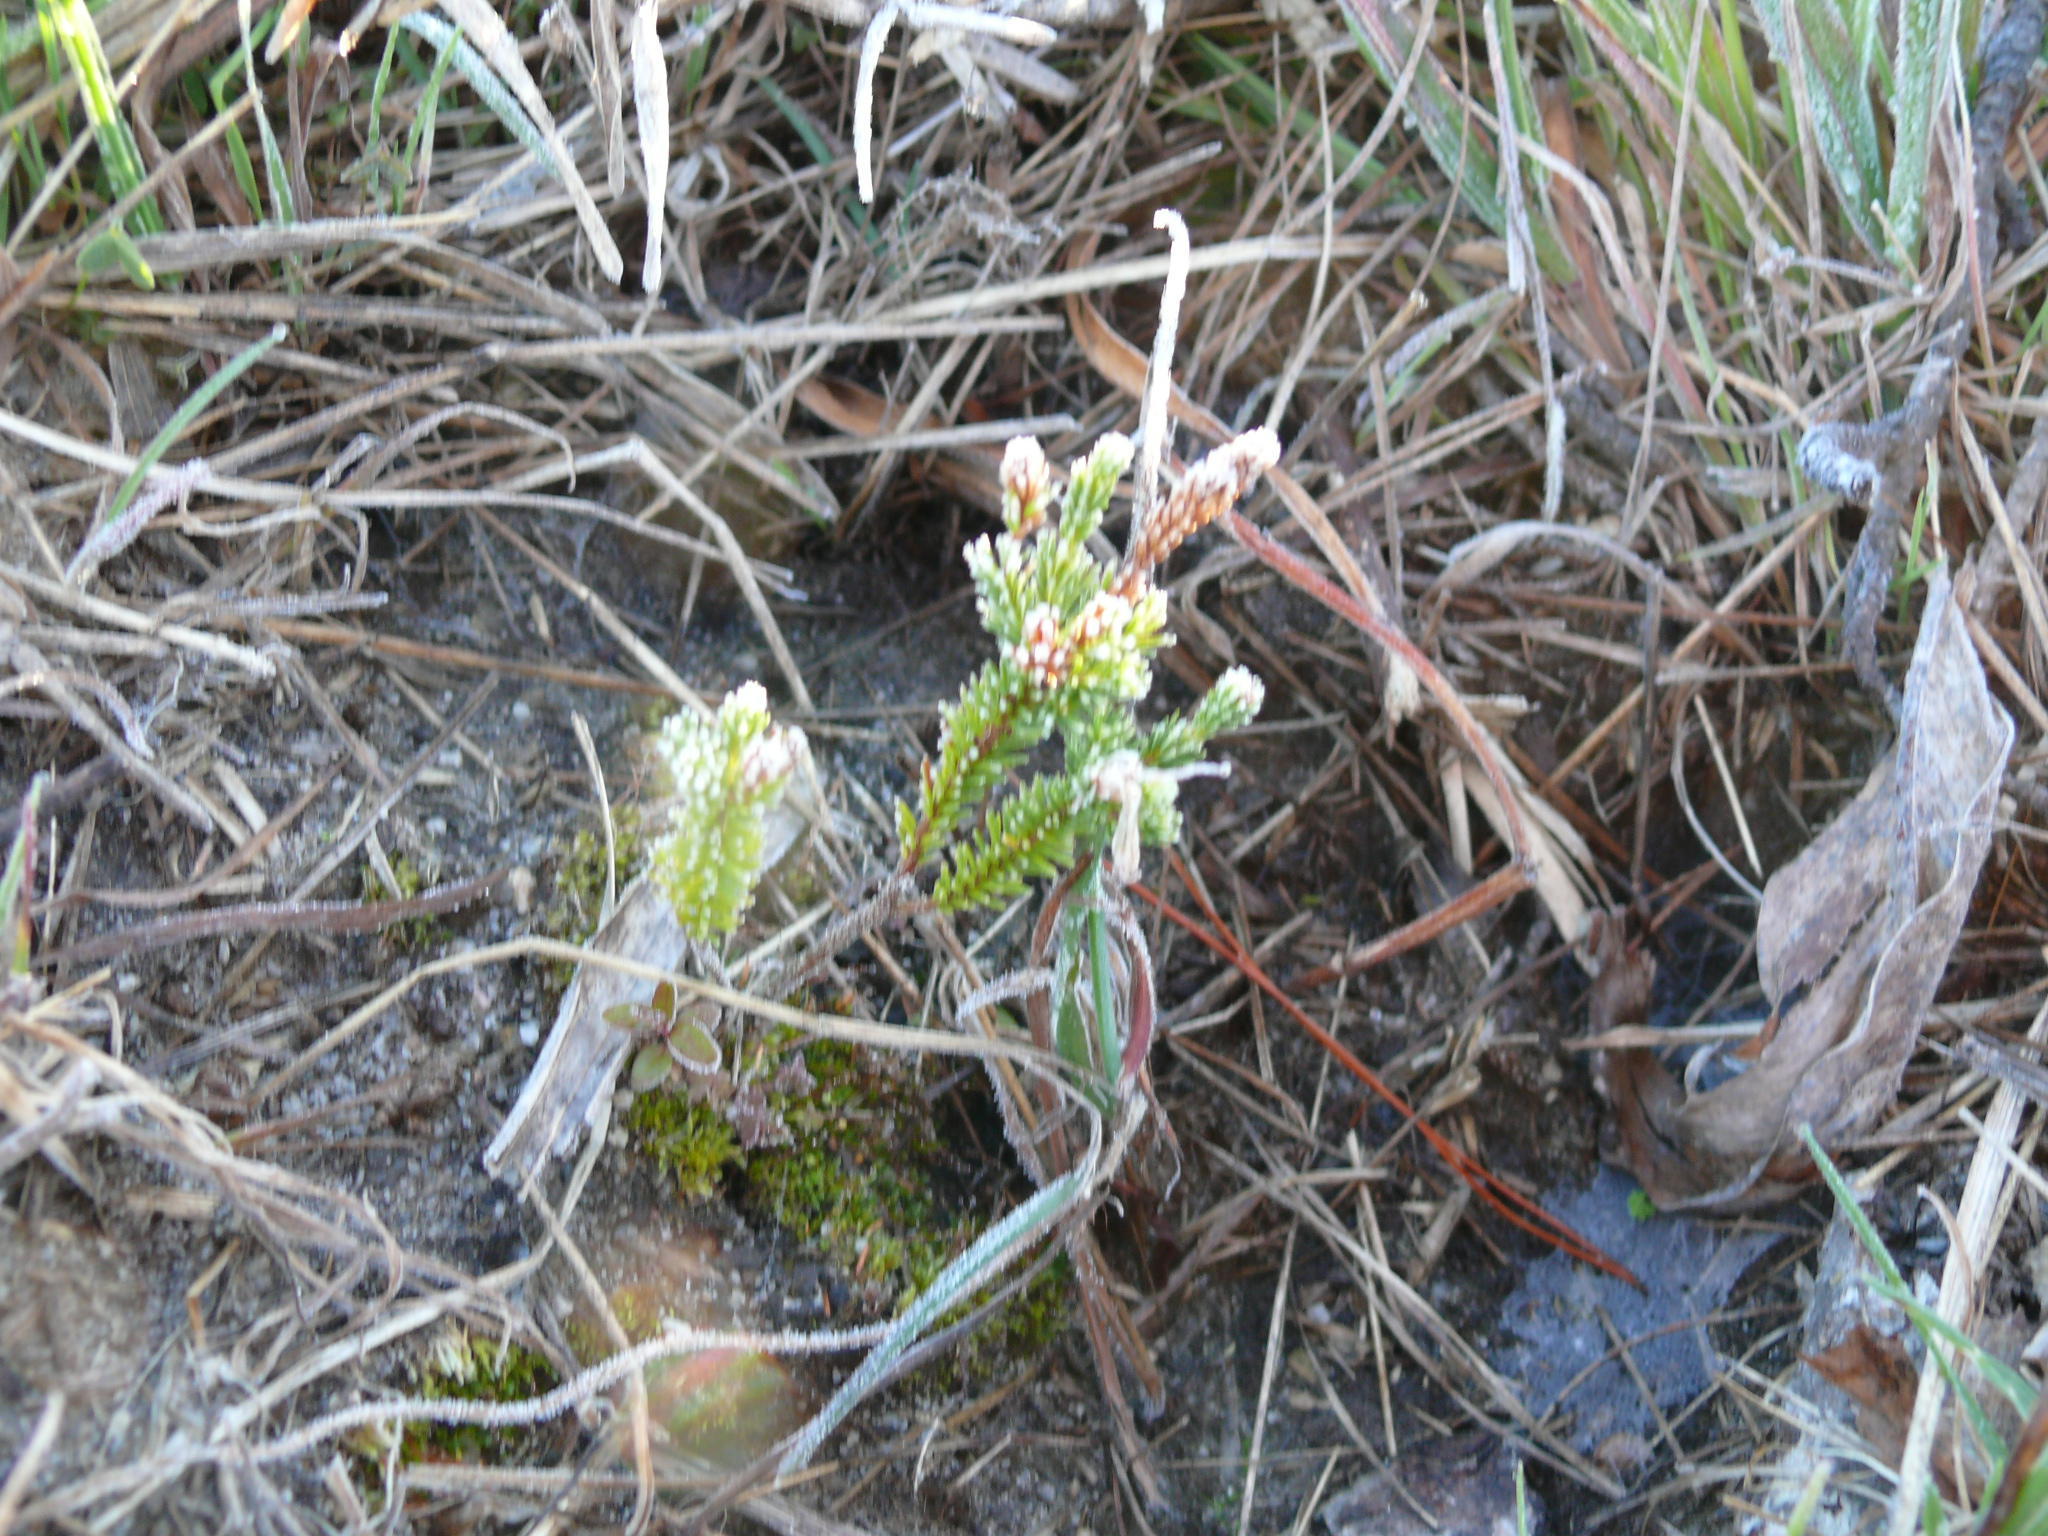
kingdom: Plantae
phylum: Tracheophyta
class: Magnoliopsida
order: Ericales
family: Ericaceae
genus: Erica
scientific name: Erica verticillata
